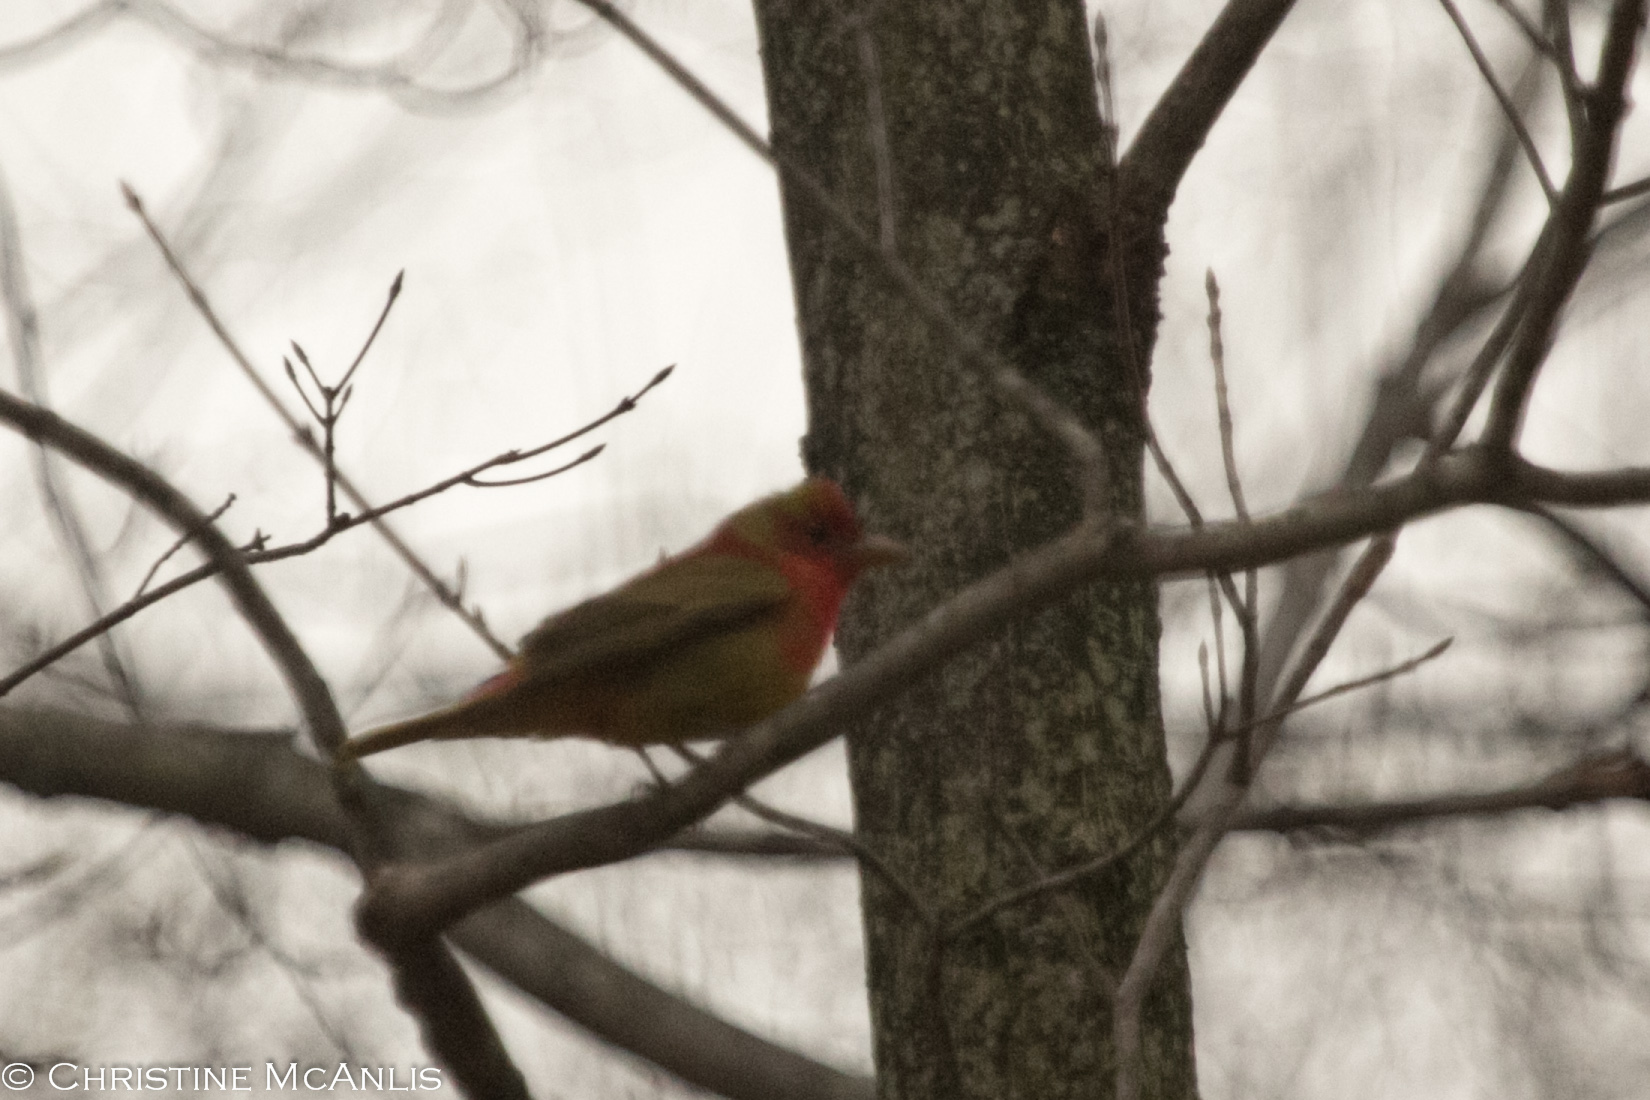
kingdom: Animalia
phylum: Chordata
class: Aves
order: Passeriformes
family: Cardinalidae
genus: Piranga
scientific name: Piranga rubra
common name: Summer tanager
